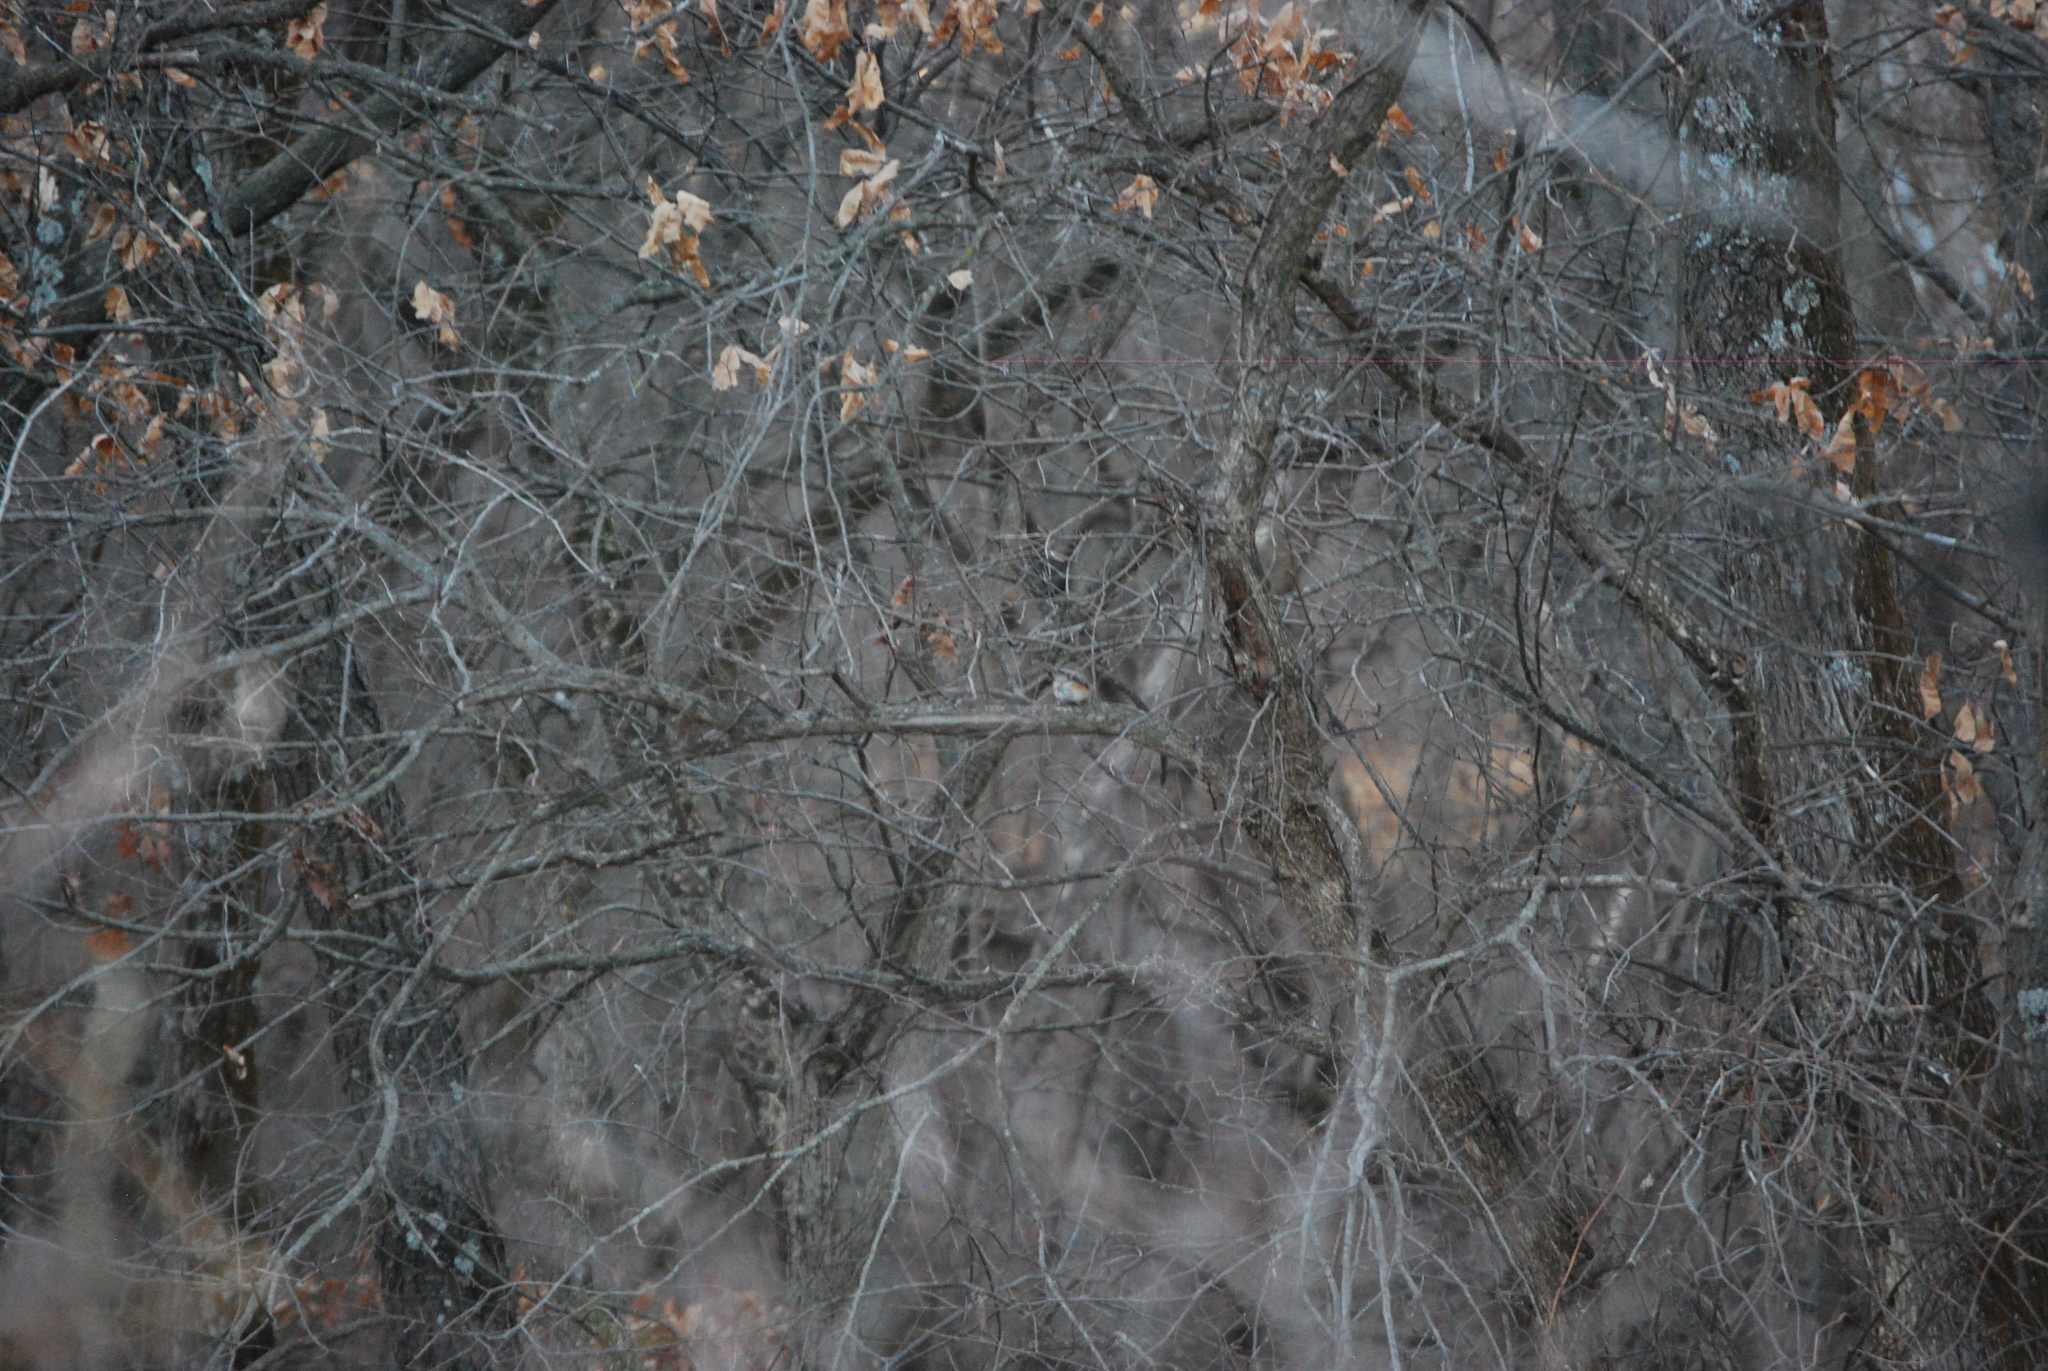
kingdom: Animalia
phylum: Chordata
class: Aves
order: Passeriformes
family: Paridae
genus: Baeolophus
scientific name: Baeolophus bicolor
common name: Tufted titmouse
